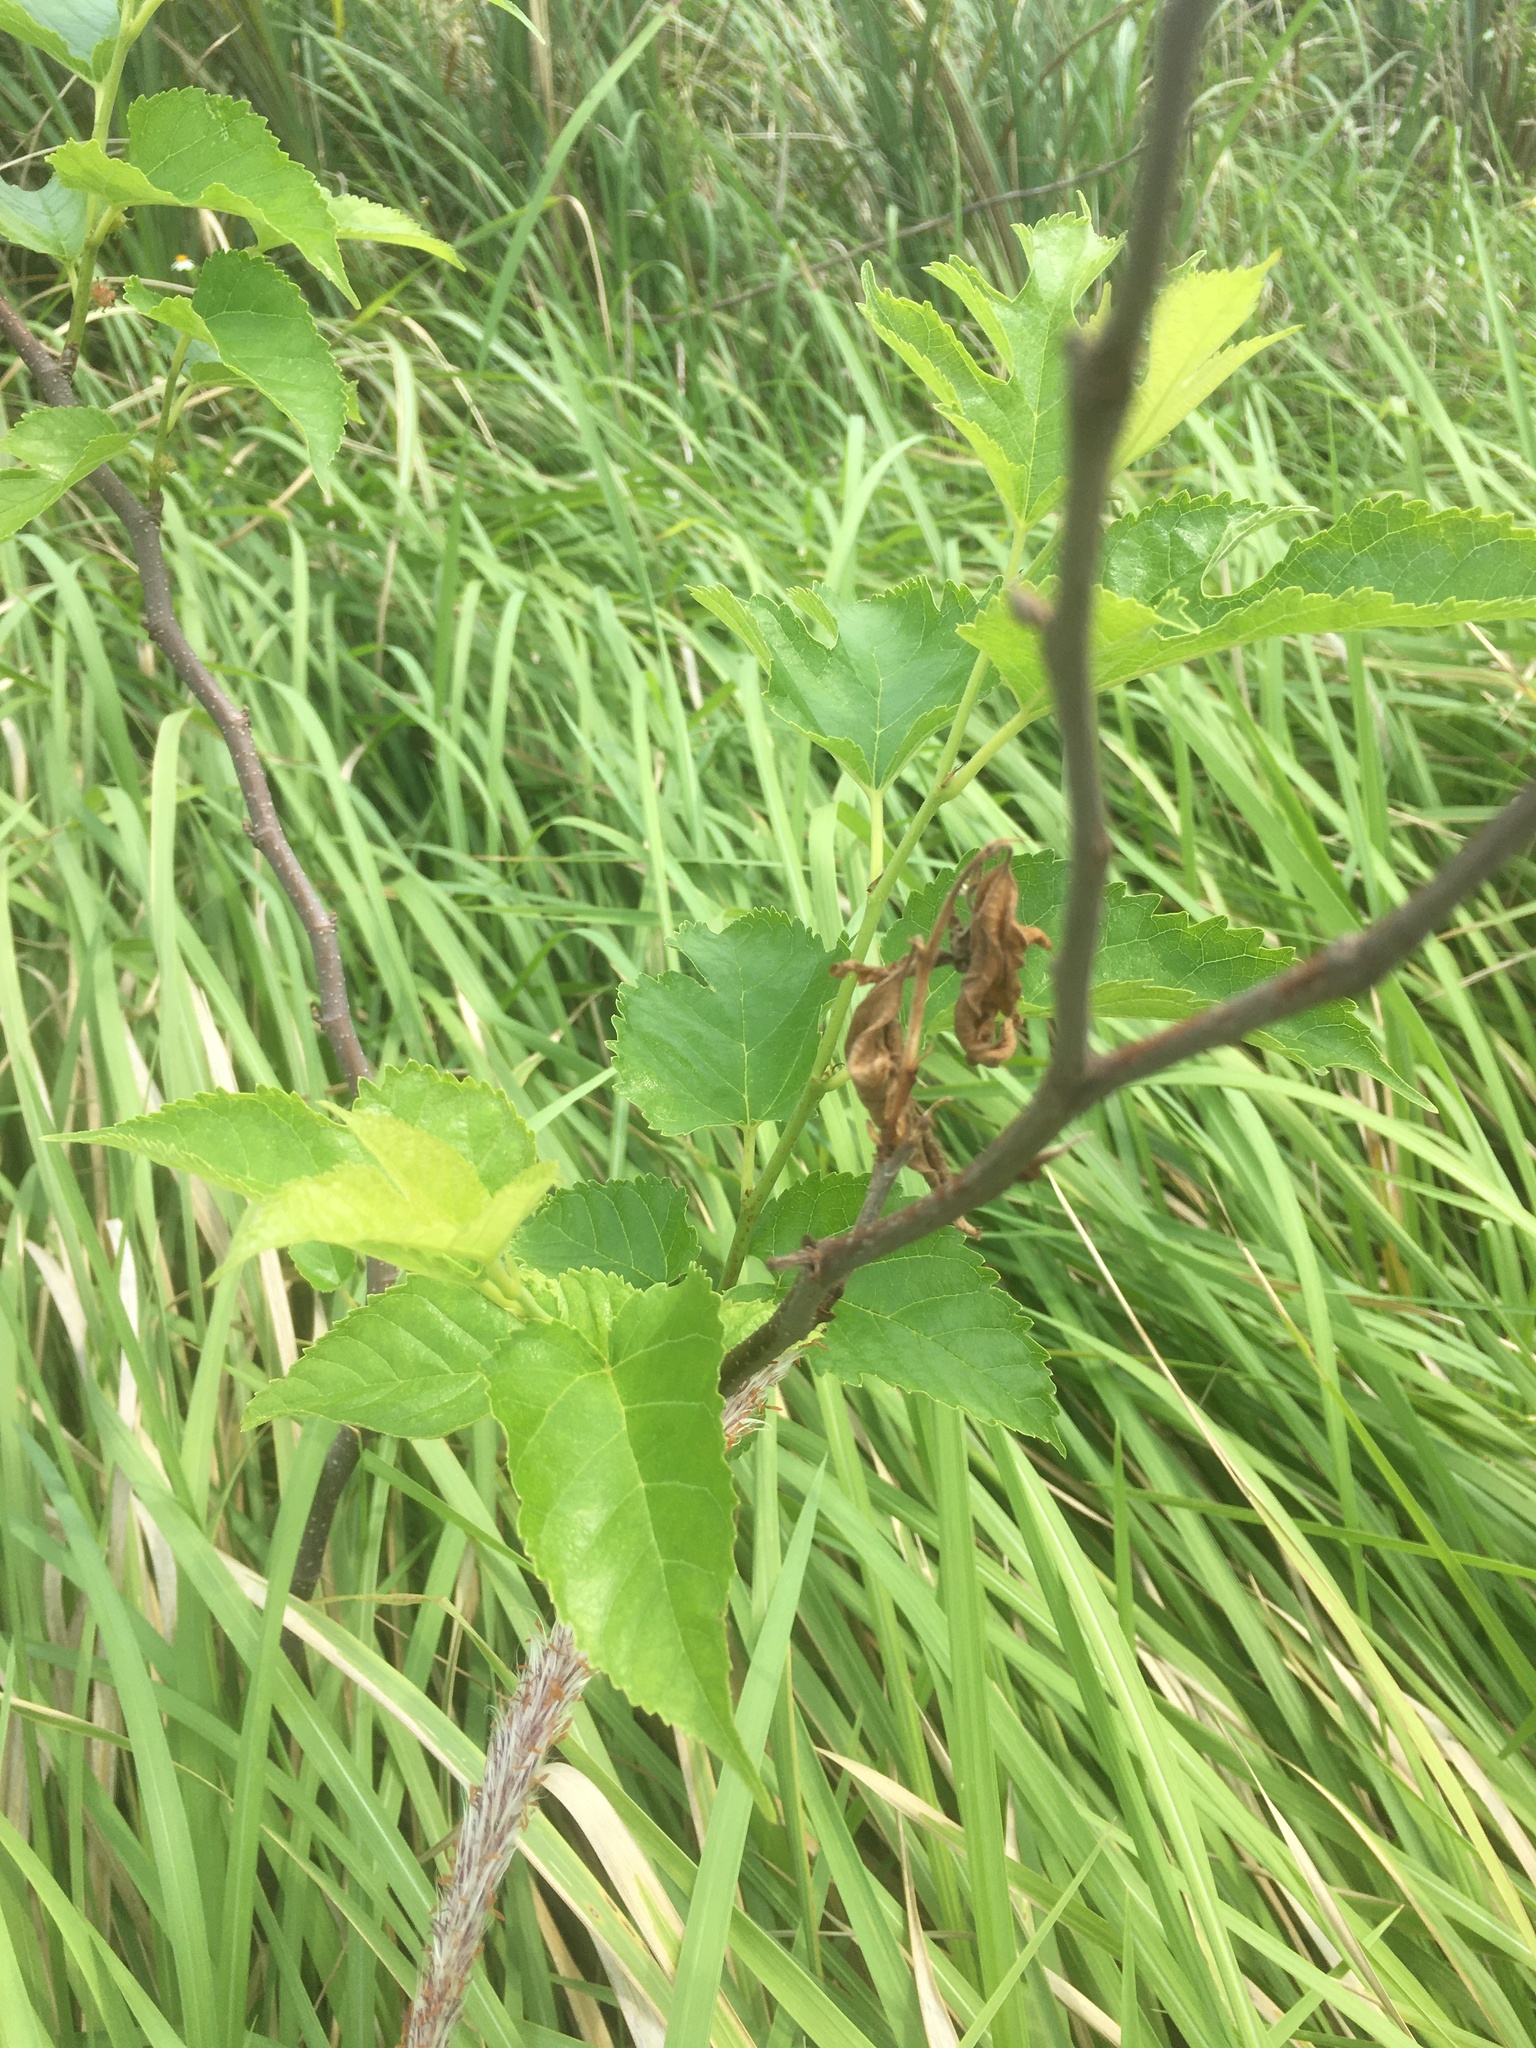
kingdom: Plantae
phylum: Tracheophyta
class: Magnoliopsida
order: Rosales
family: Moraceae
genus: Morus
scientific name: Morus indica
